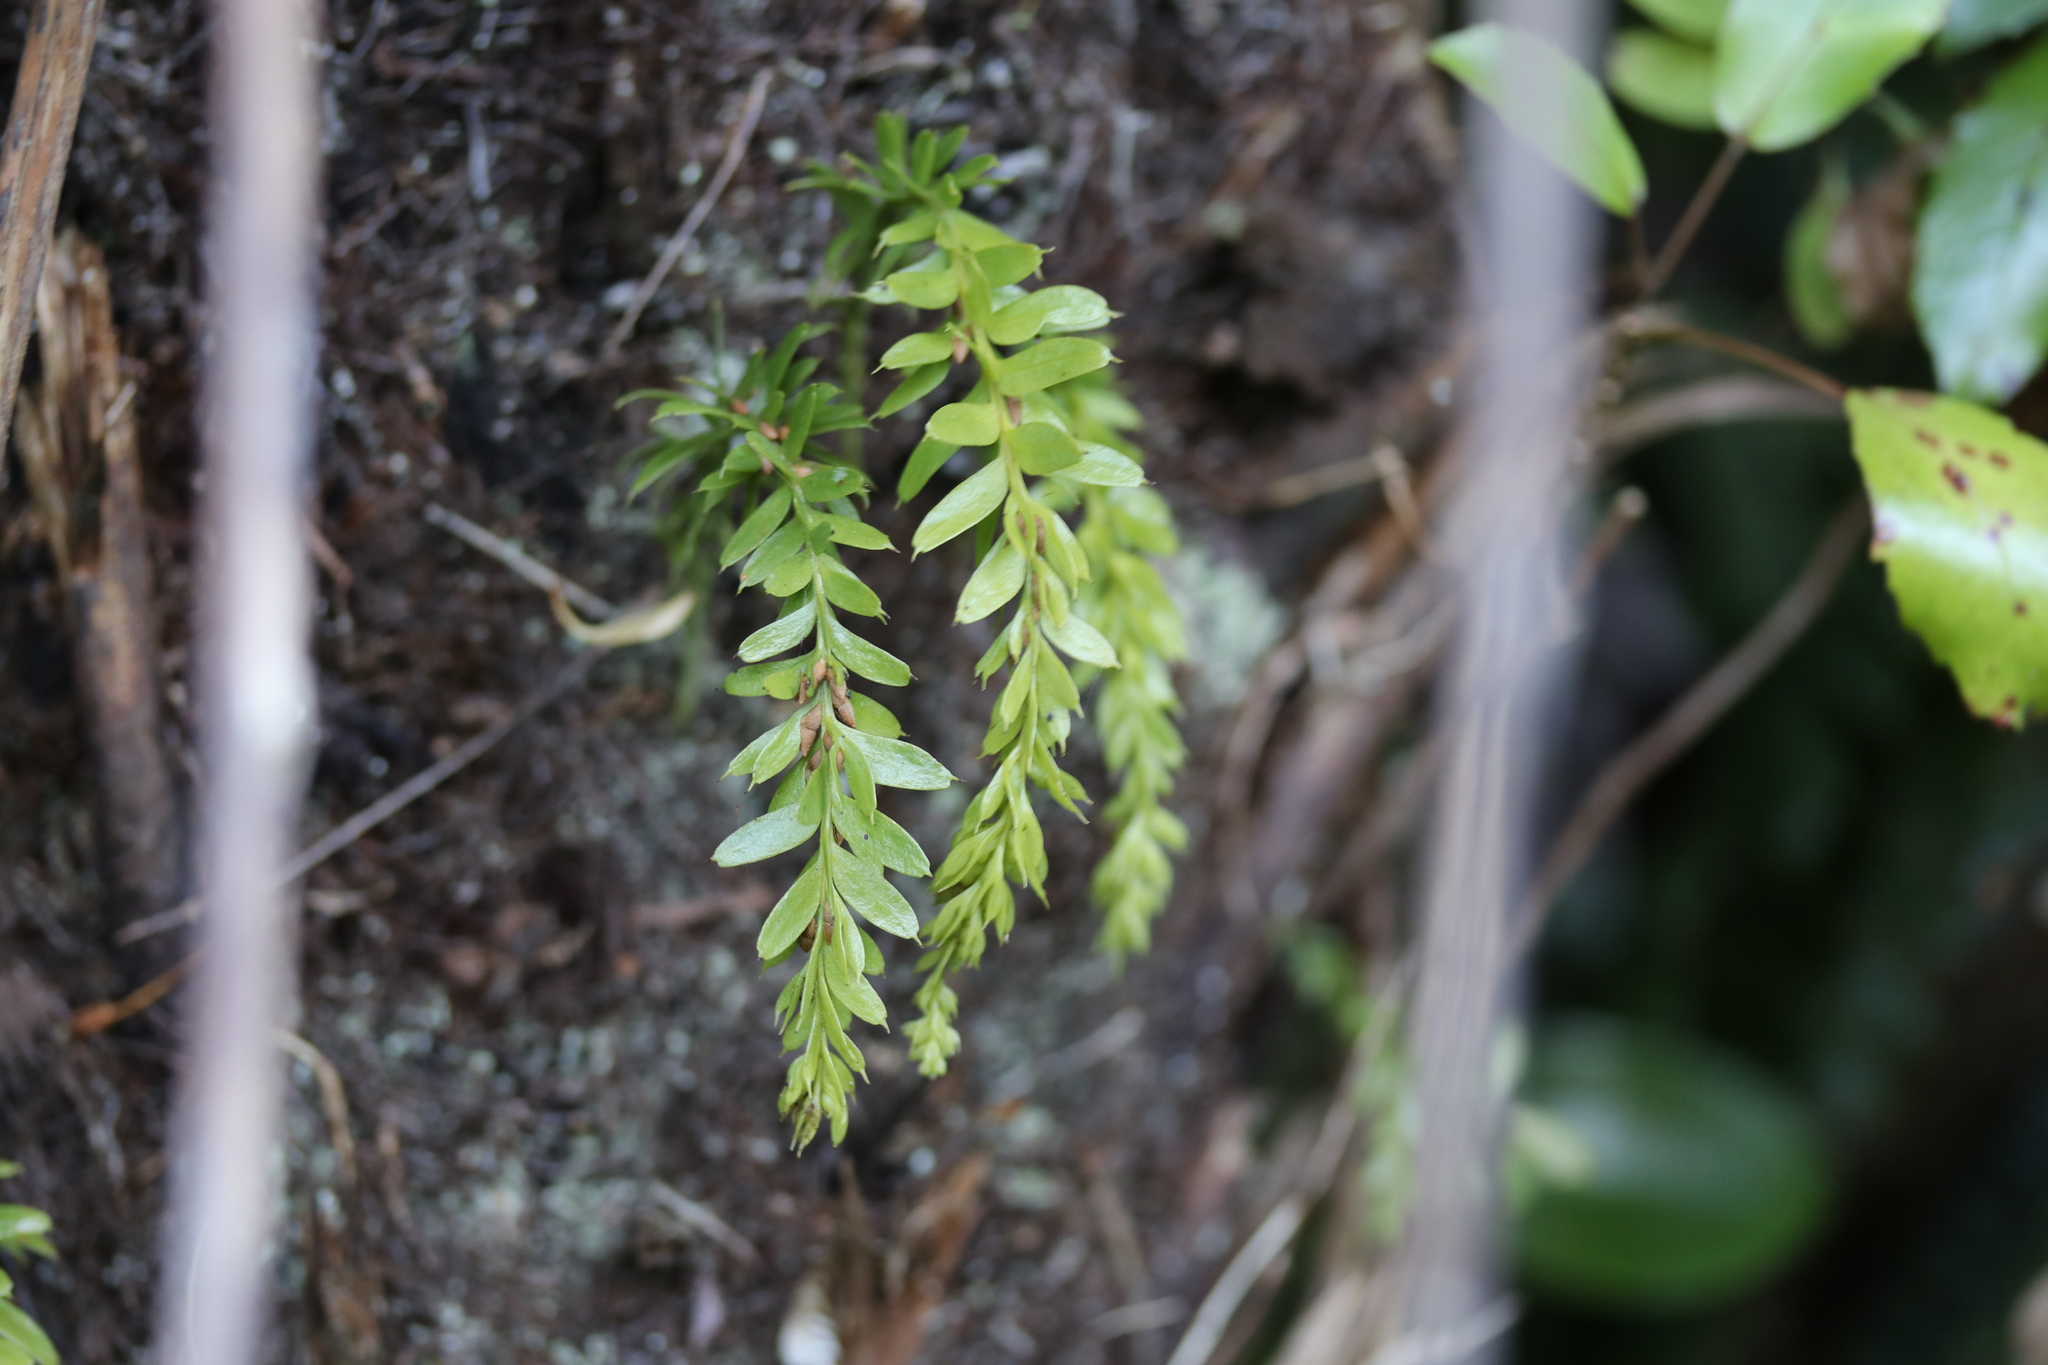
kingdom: Plantae
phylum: Tracheophyta
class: Polypodiopsida
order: Psilotales
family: Psilotaceae
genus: Tmesipteris
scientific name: Tmesipteris tannensis
